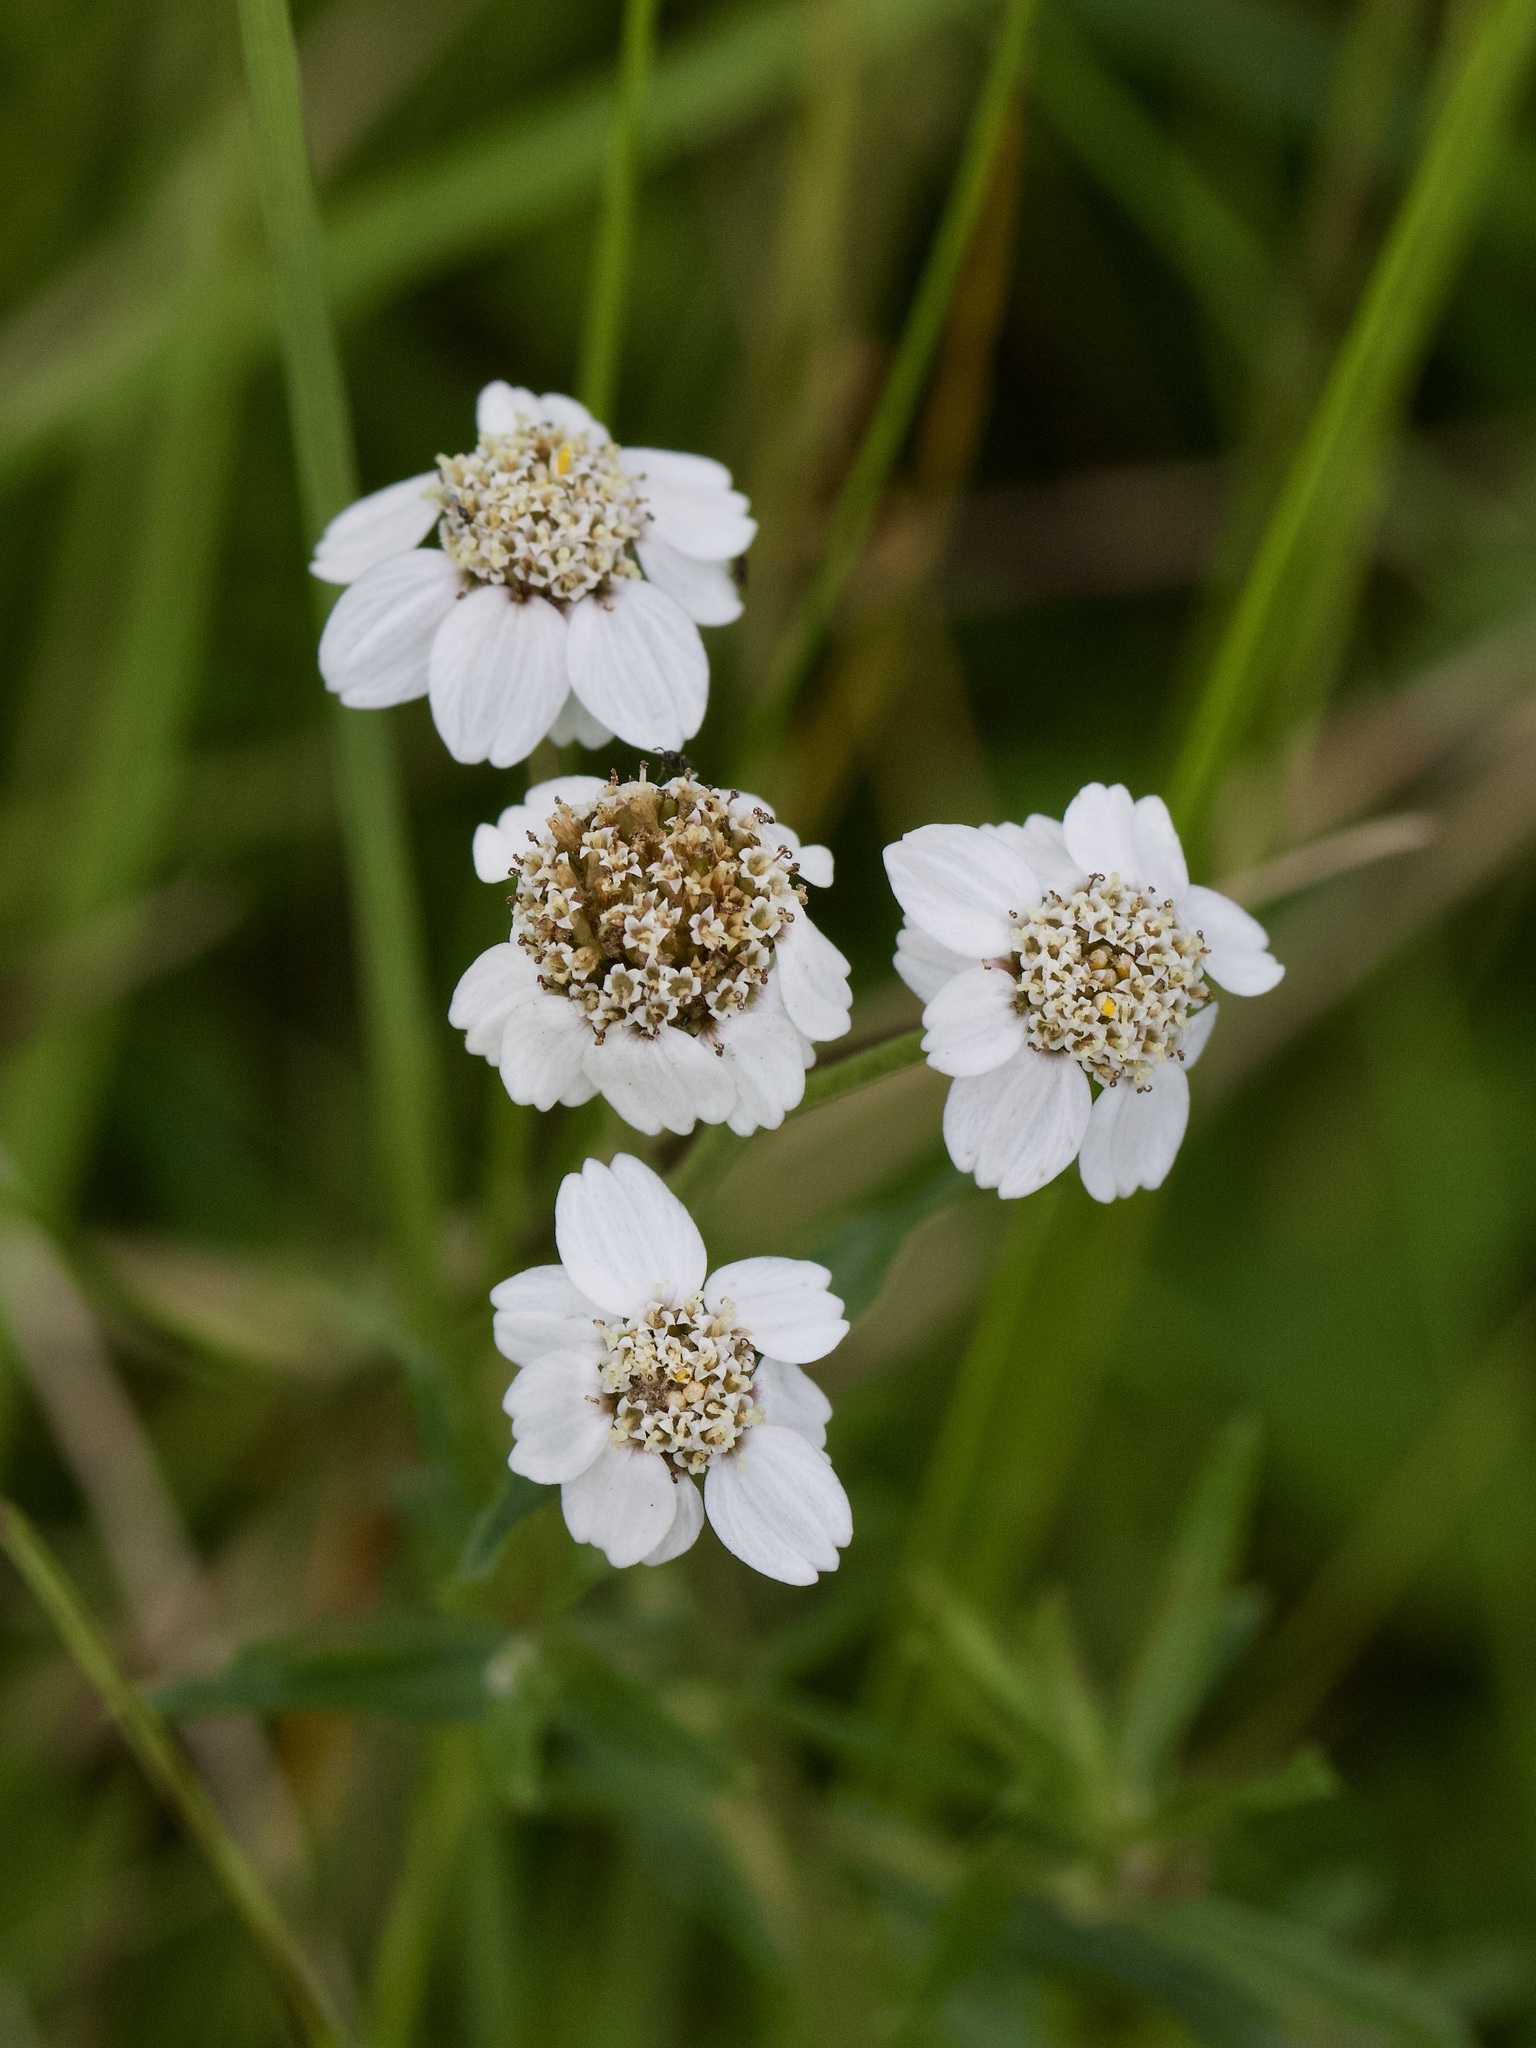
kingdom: Plantae
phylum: Tracheophyta
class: Magnoliopsida
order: Asterales
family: Asteraceae
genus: Achillea
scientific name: Achillea ptarmica
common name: Sneezeweed
